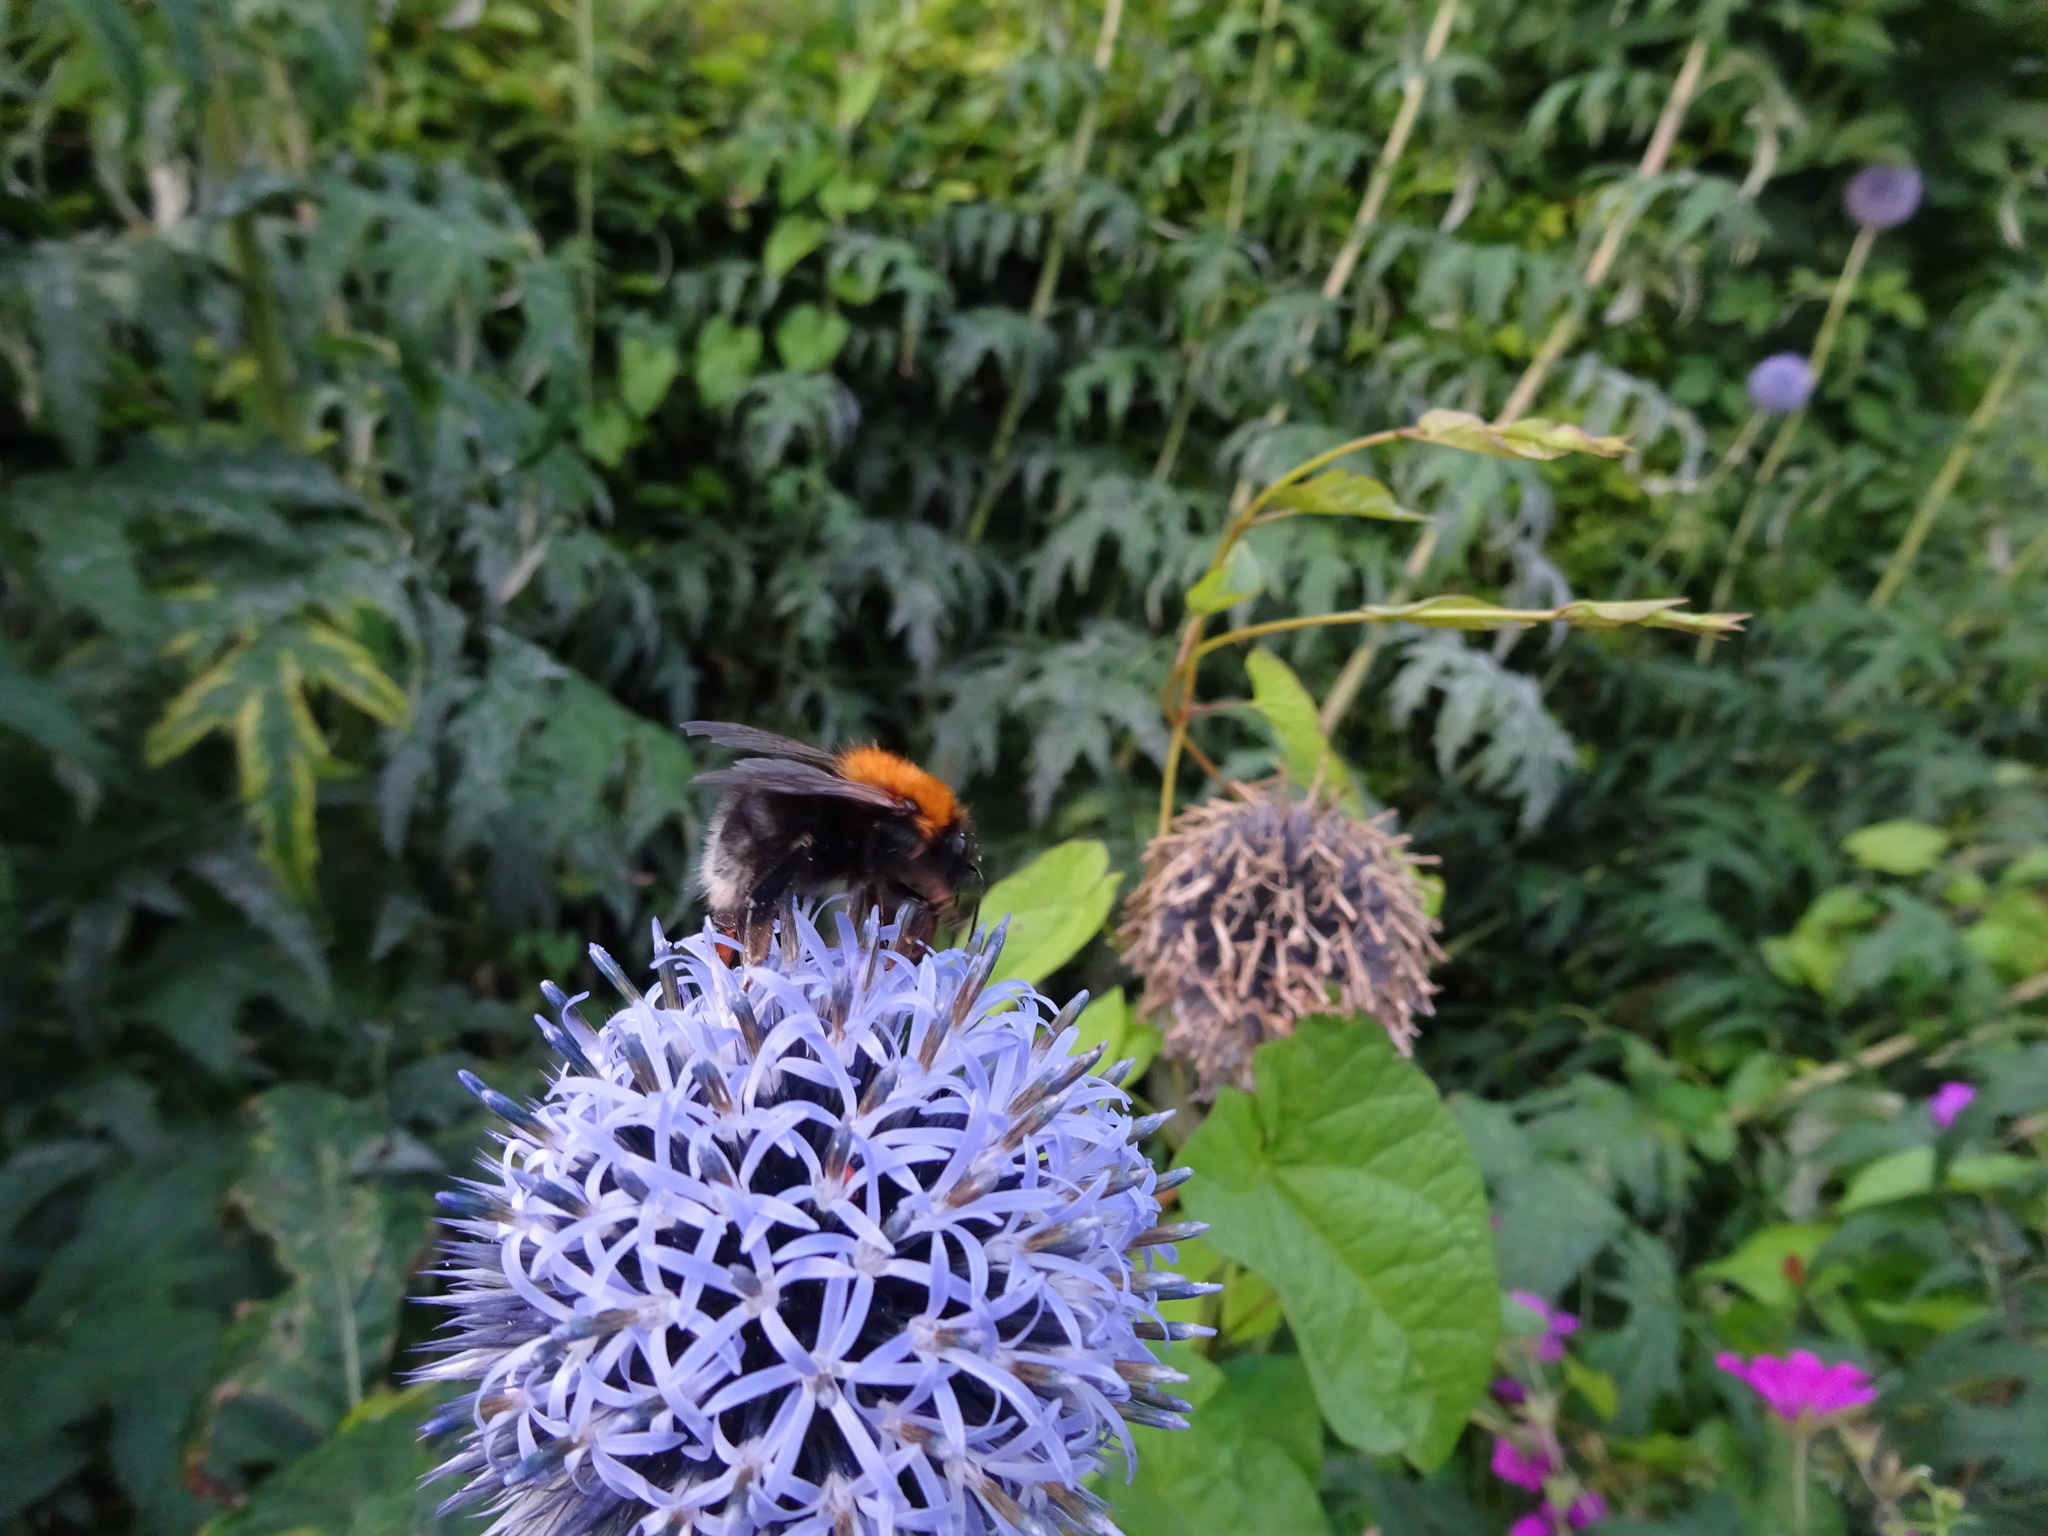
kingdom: Animalia
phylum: Arthropoda
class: Insecta
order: Hymenoptera
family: Apidae
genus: Bombus
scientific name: Bombus hypnorum
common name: New garden bumblebee
